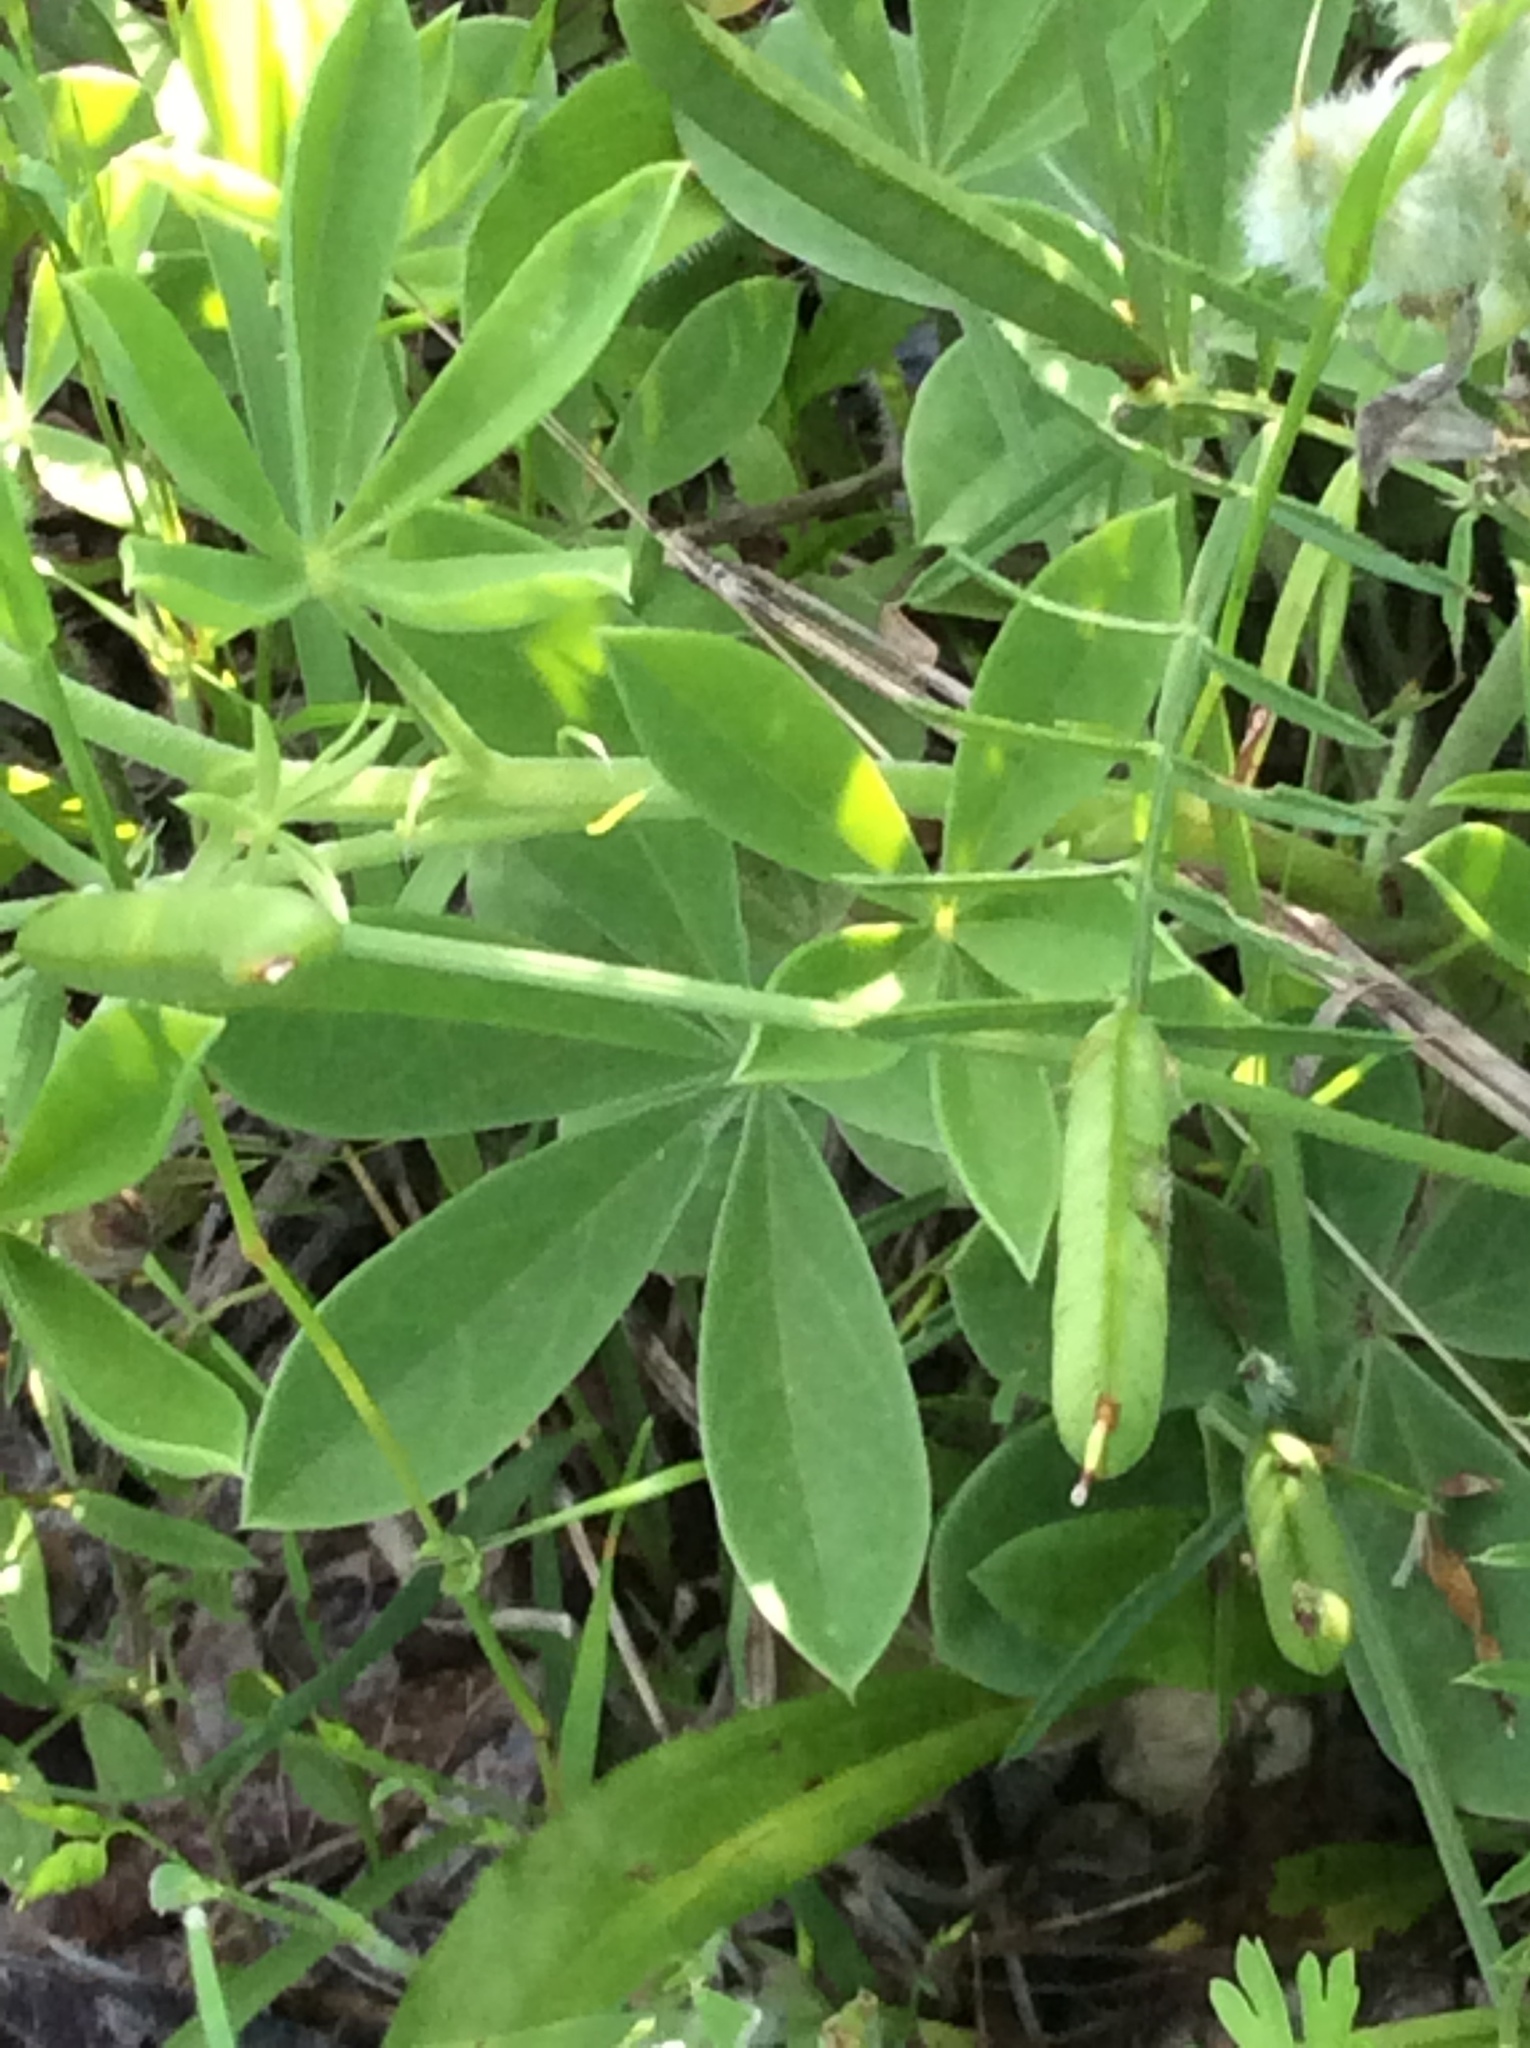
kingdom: Plantae
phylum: Tracheophyta
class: Magnoliopsida
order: Fabales
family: Fabaceae
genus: Lupinus
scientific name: Lupinus texensis
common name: Texas bluebonnet
